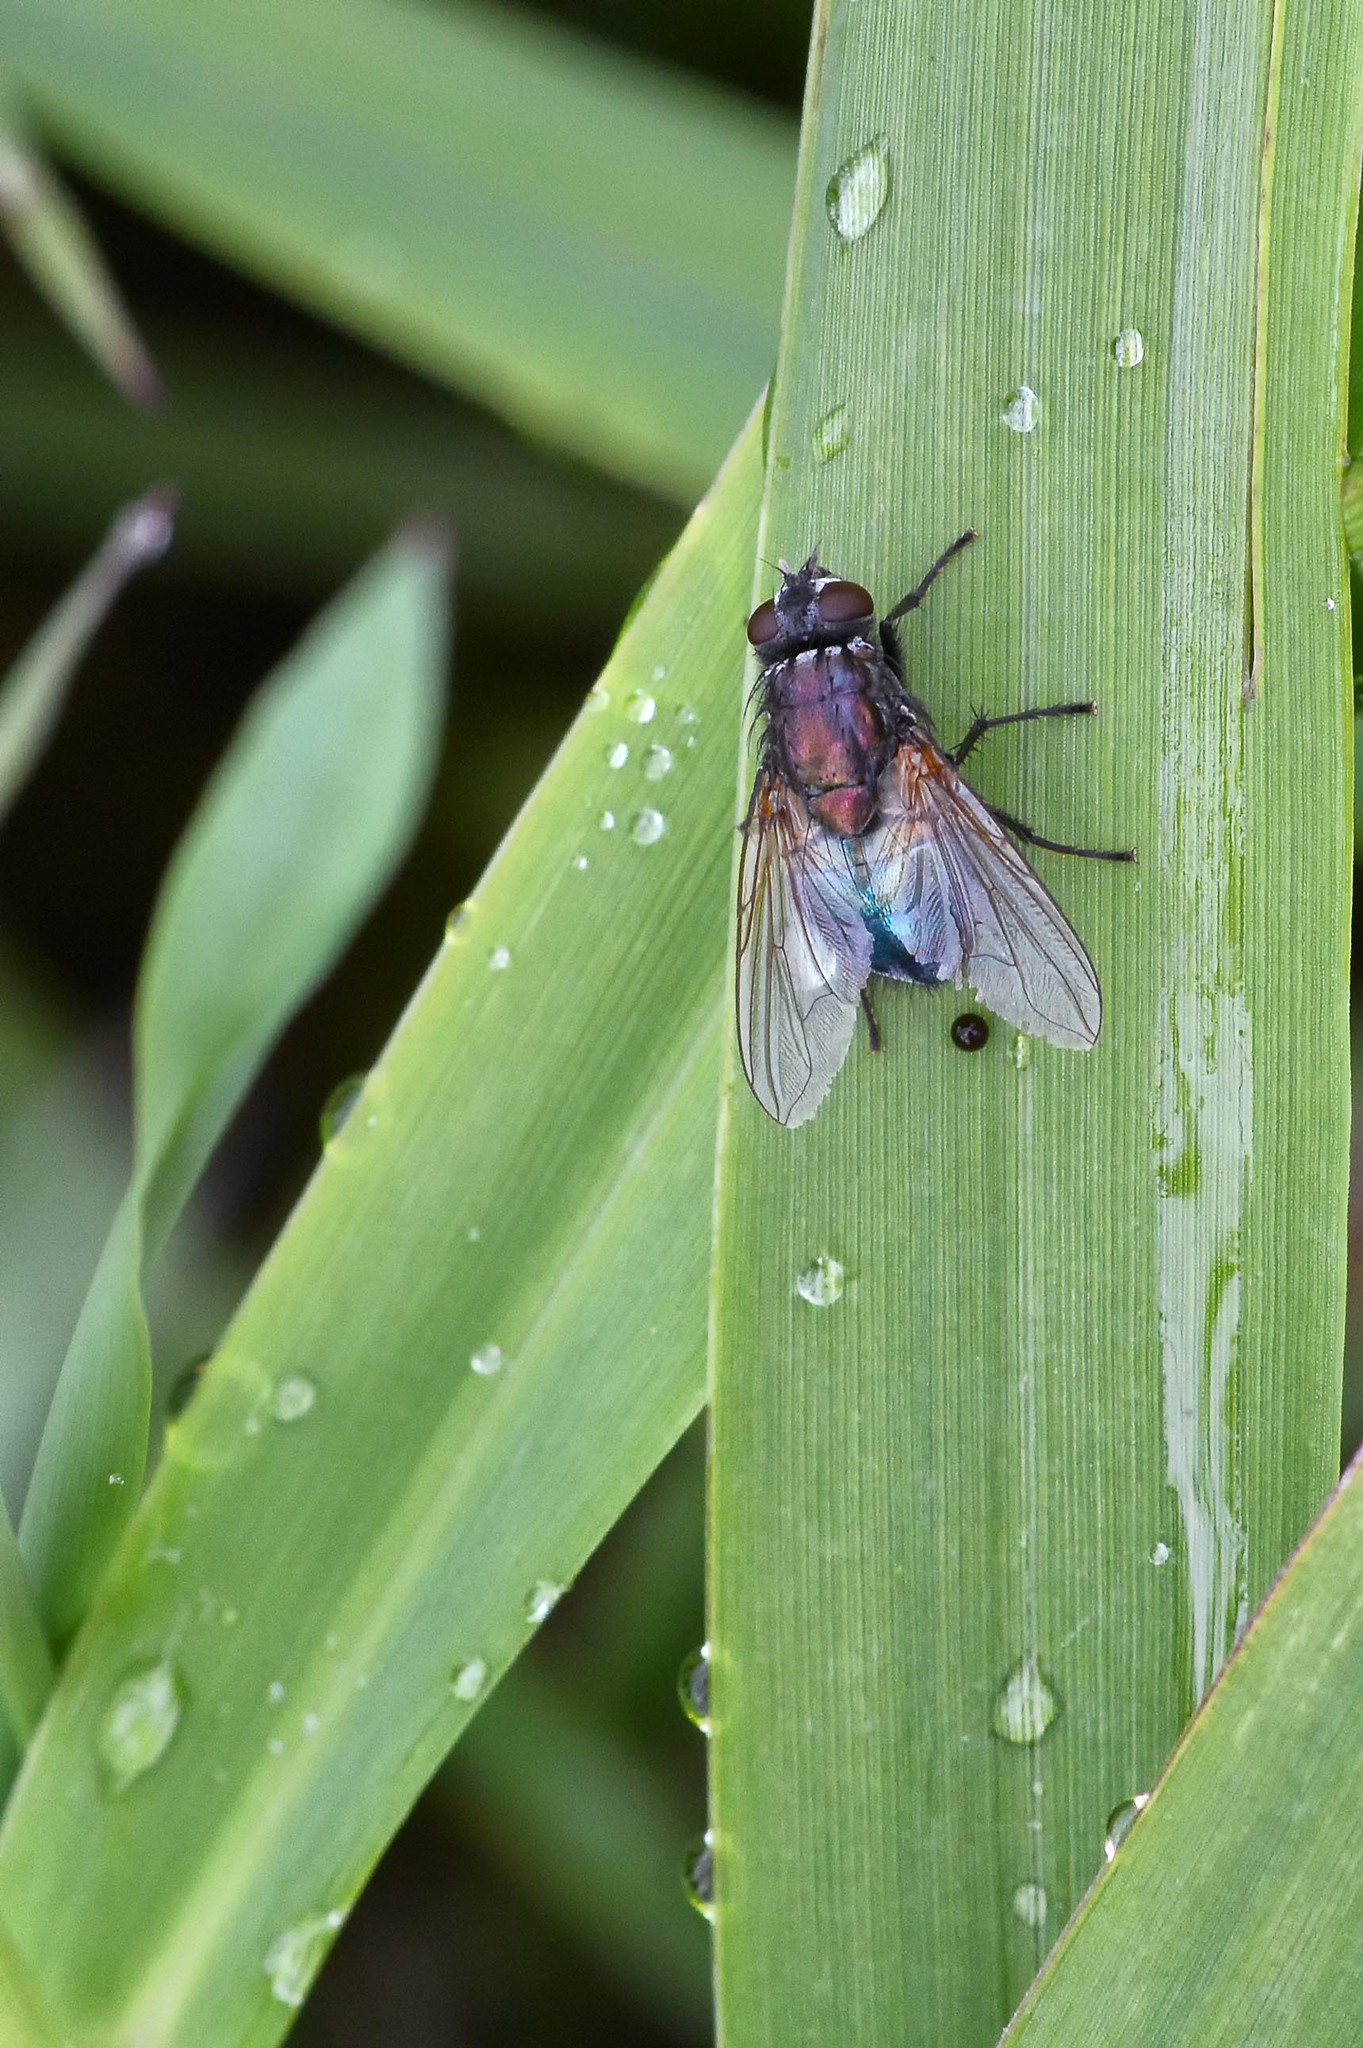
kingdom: Animalia
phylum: Arthropoda
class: Insecta
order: Diptera
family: Muscidae
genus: Dasyphora
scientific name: Dasyphora cyanella
